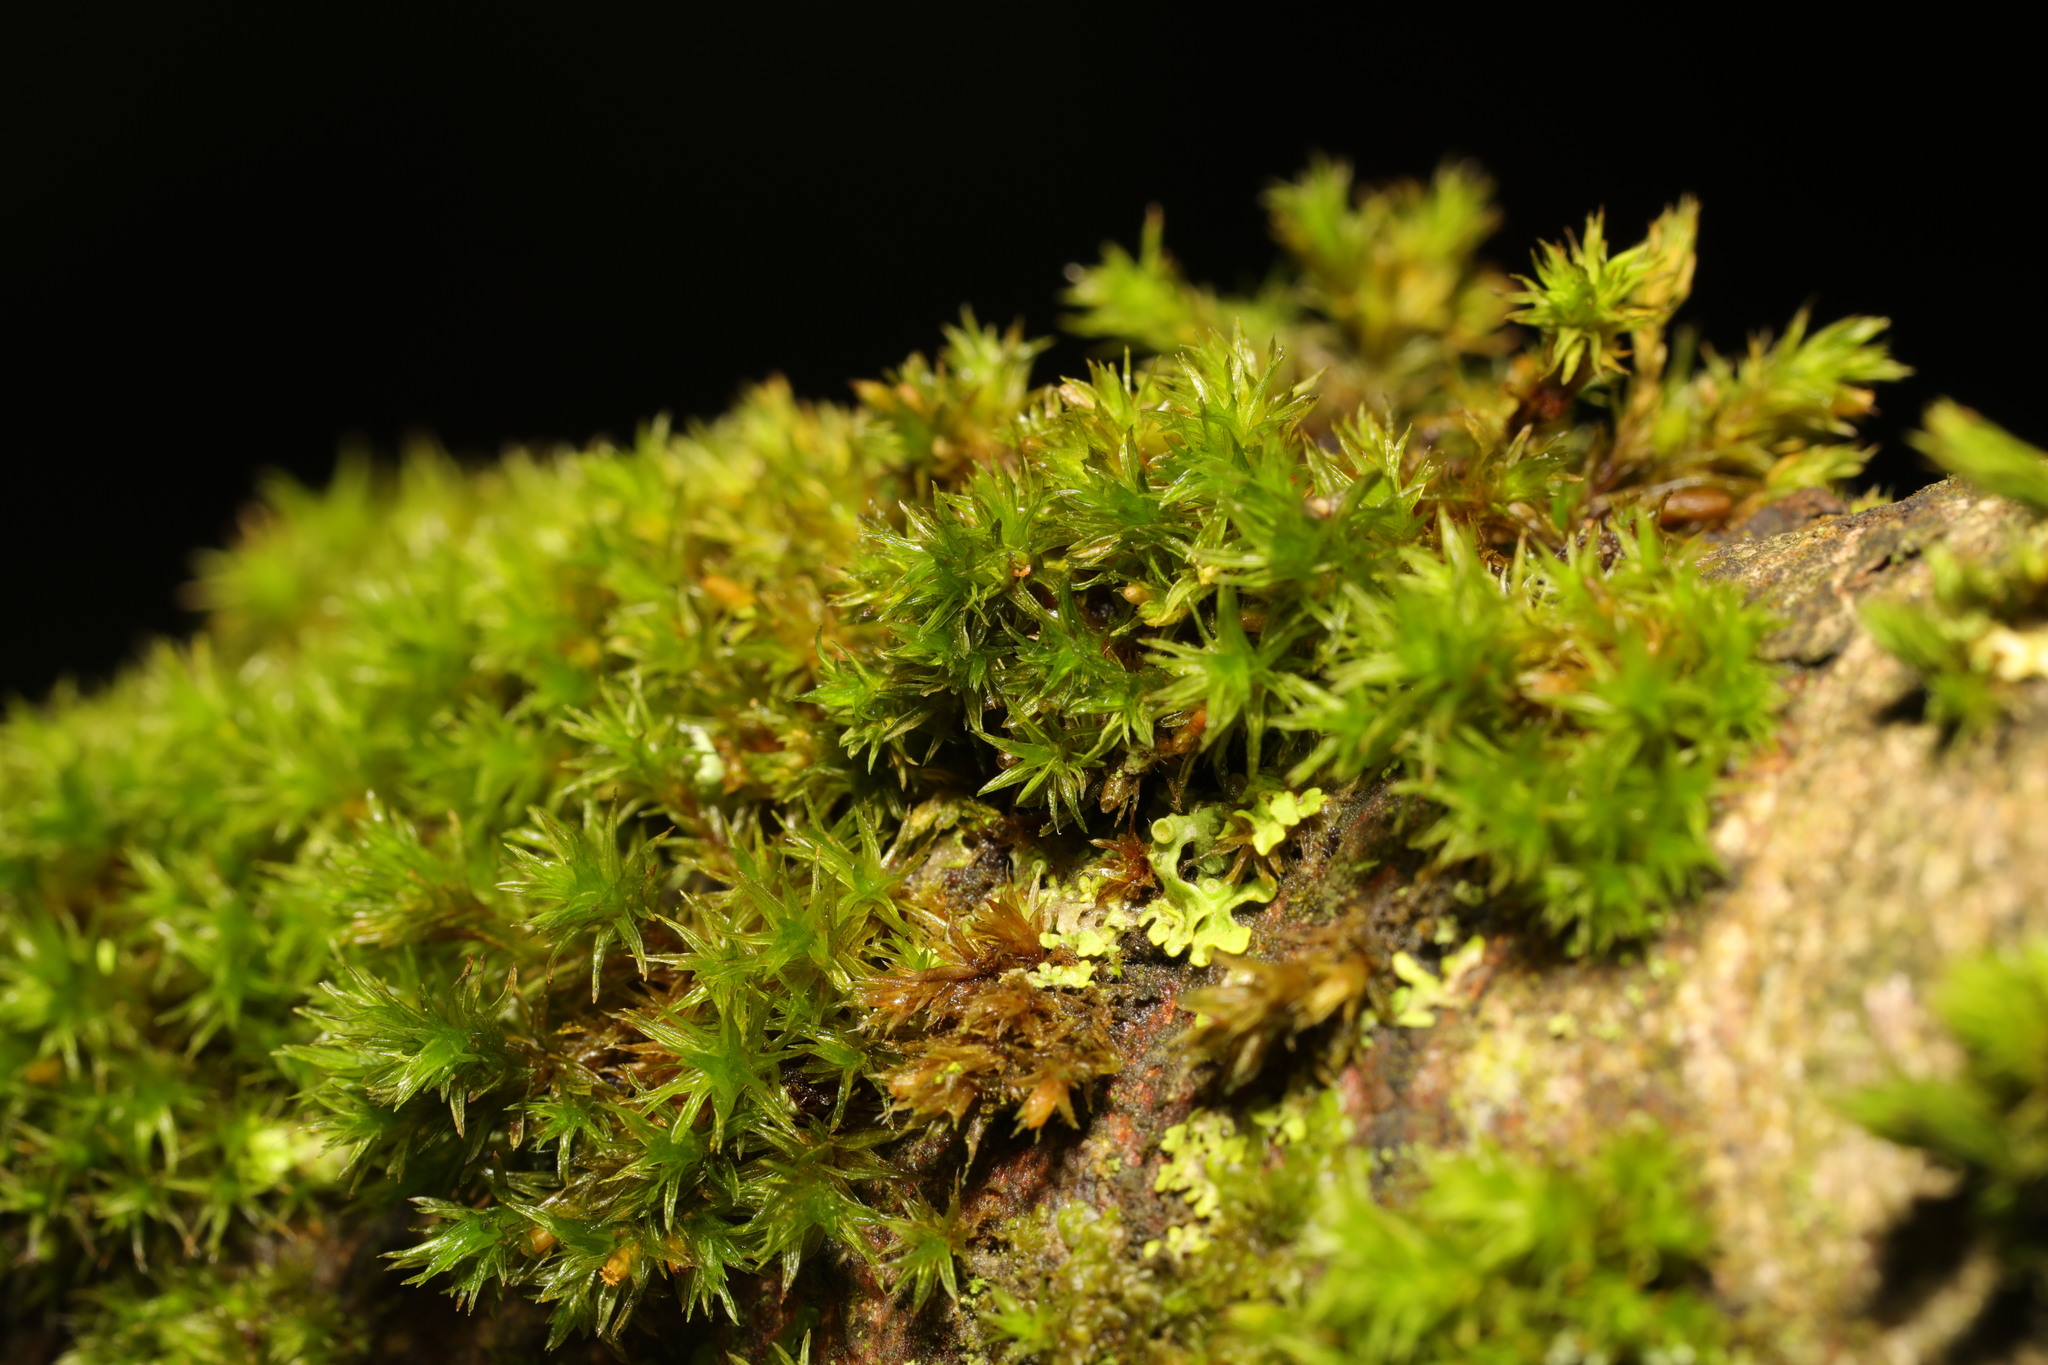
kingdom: Plantae
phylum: Bryophyta
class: Bryopsida
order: Orthotrichales
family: Orthotrichaceae
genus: Lewinskya
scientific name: Lewinskya affinis
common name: Wood bristle-moss
